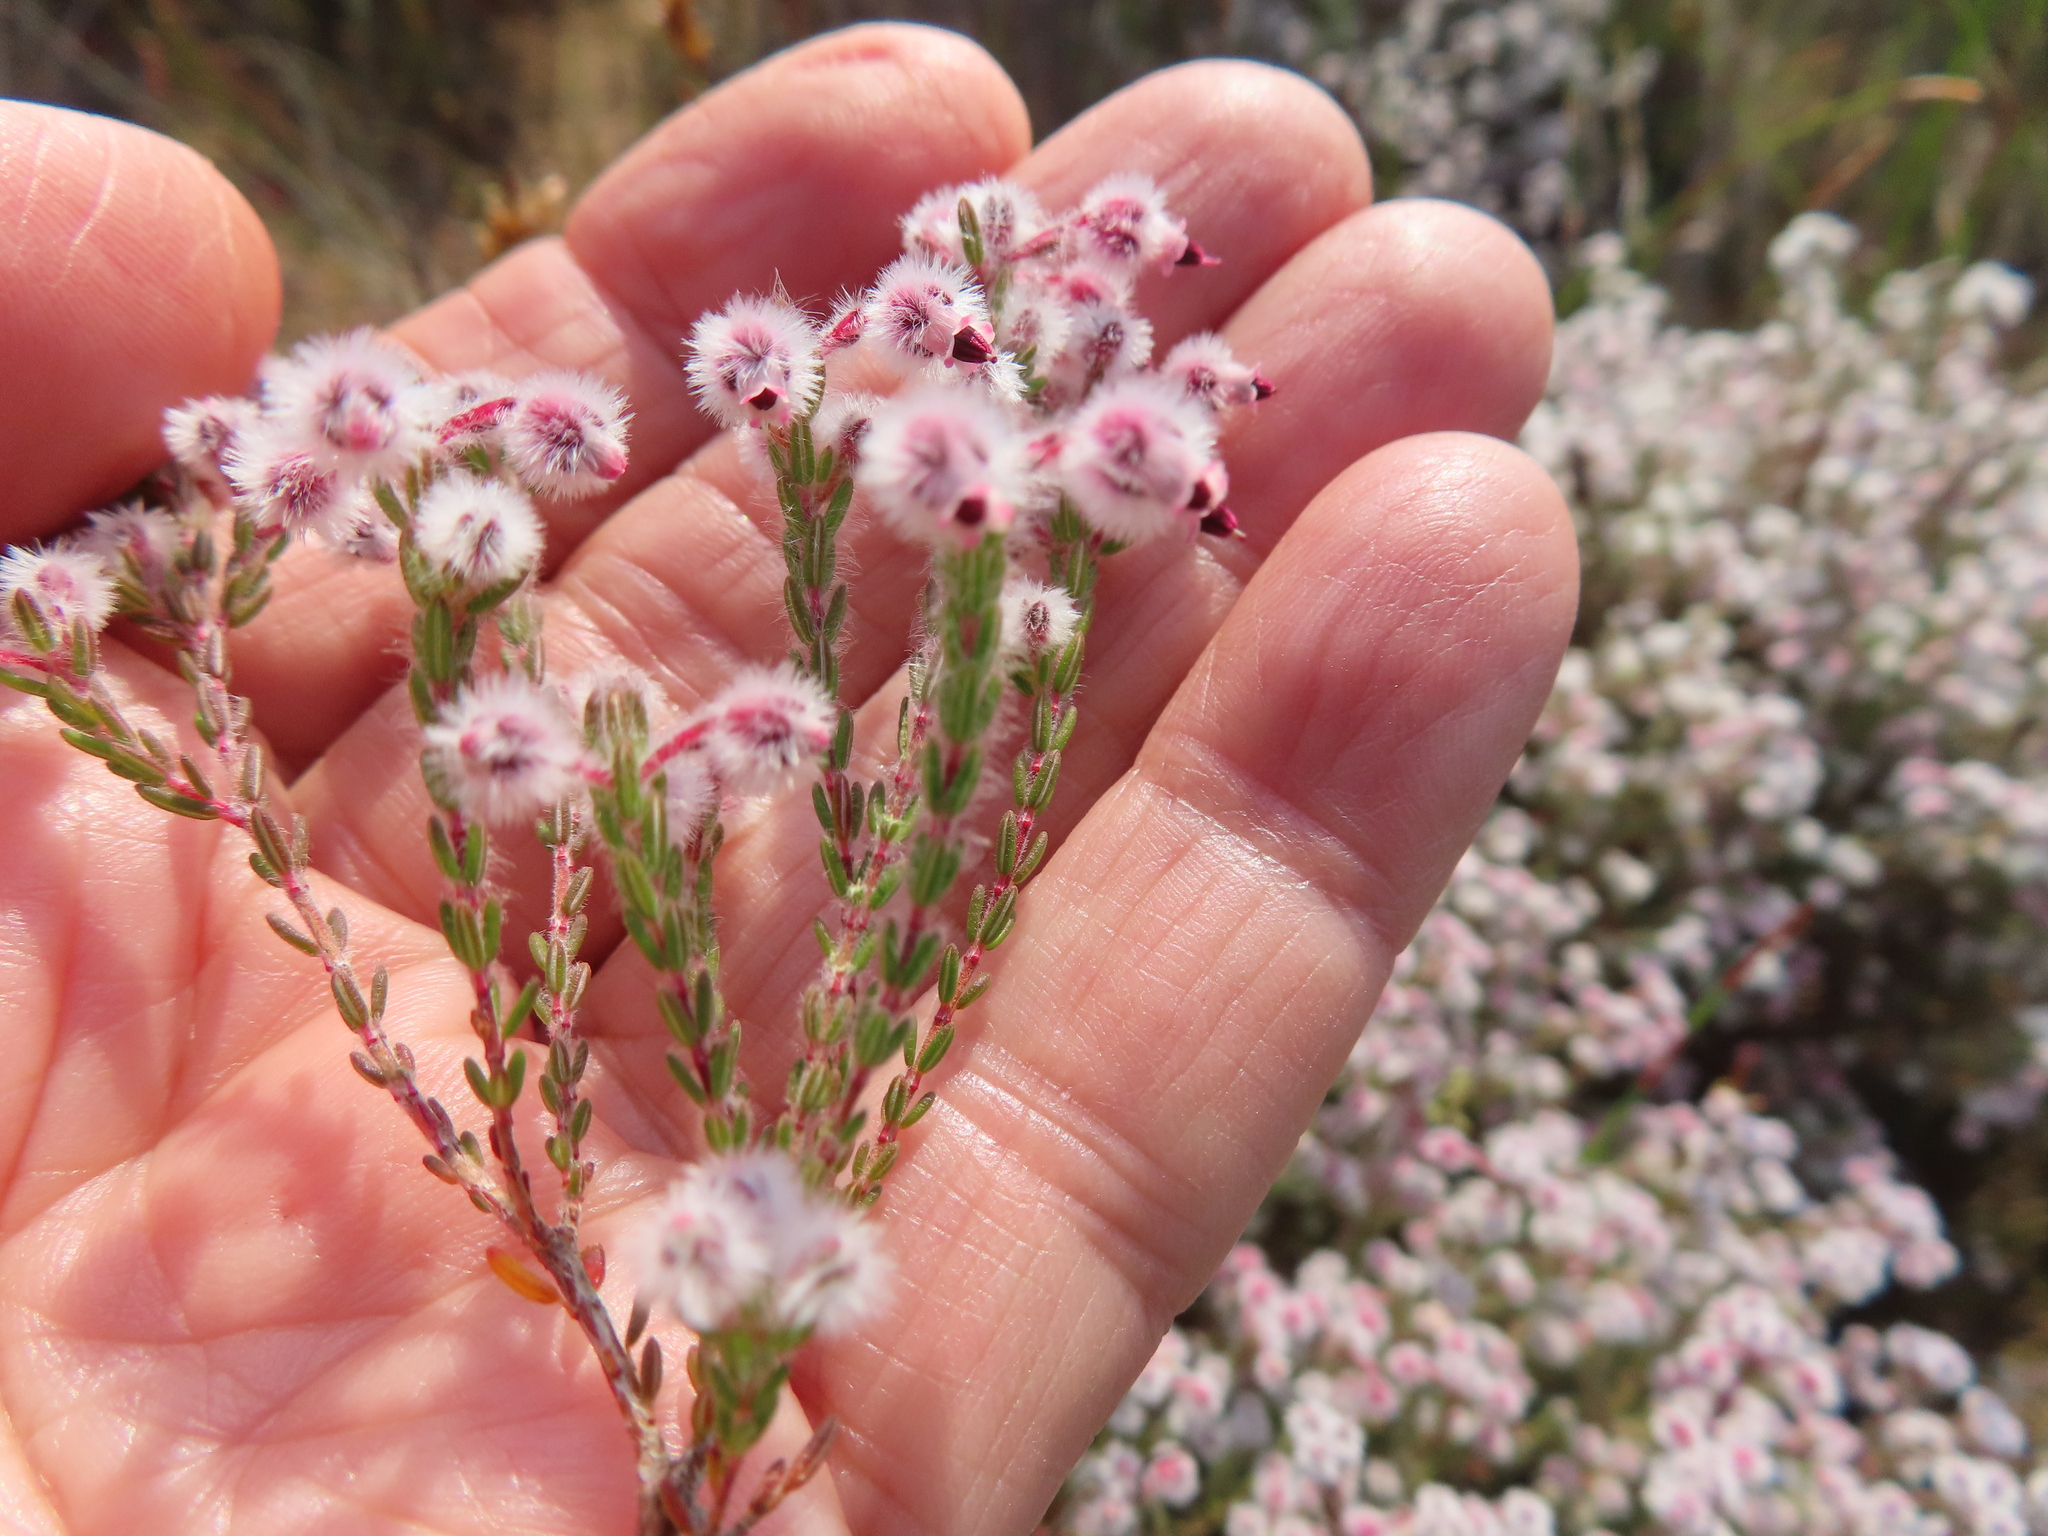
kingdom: Plantae
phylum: Tracheophyta
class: Magnoliopsida
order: Ericales
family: Ericaceae
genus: Erica
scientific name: Erica bruniades
